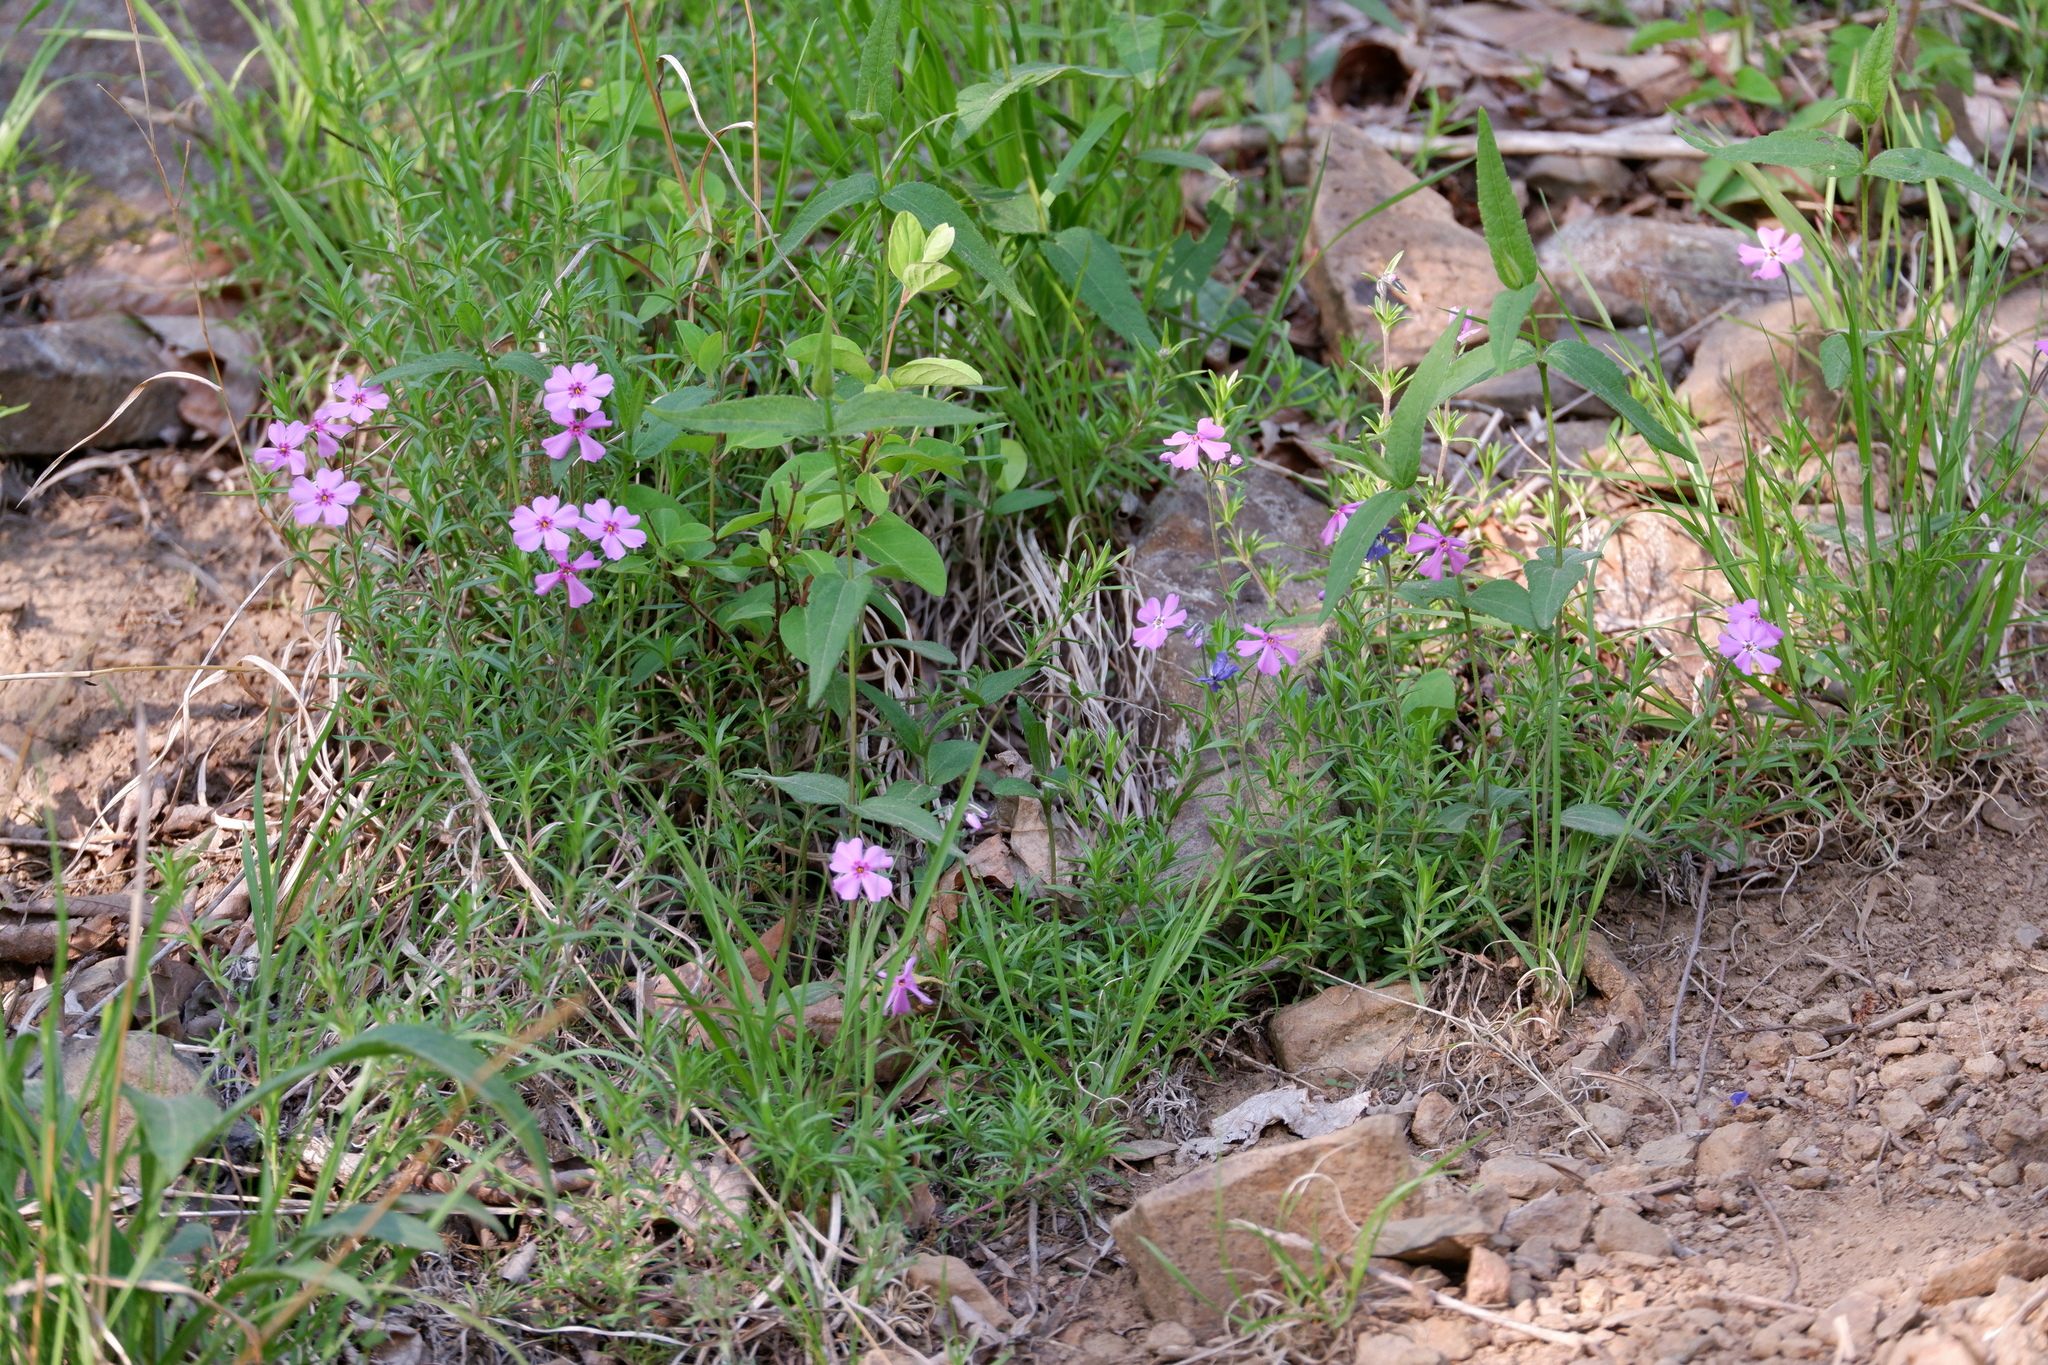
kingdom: Plantae
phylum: Tracheophyta
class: Magnoliopsida
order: Ericales
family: Polemoniaceae
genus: Phlox
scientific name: Phlox subulata
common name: Moss phlox
